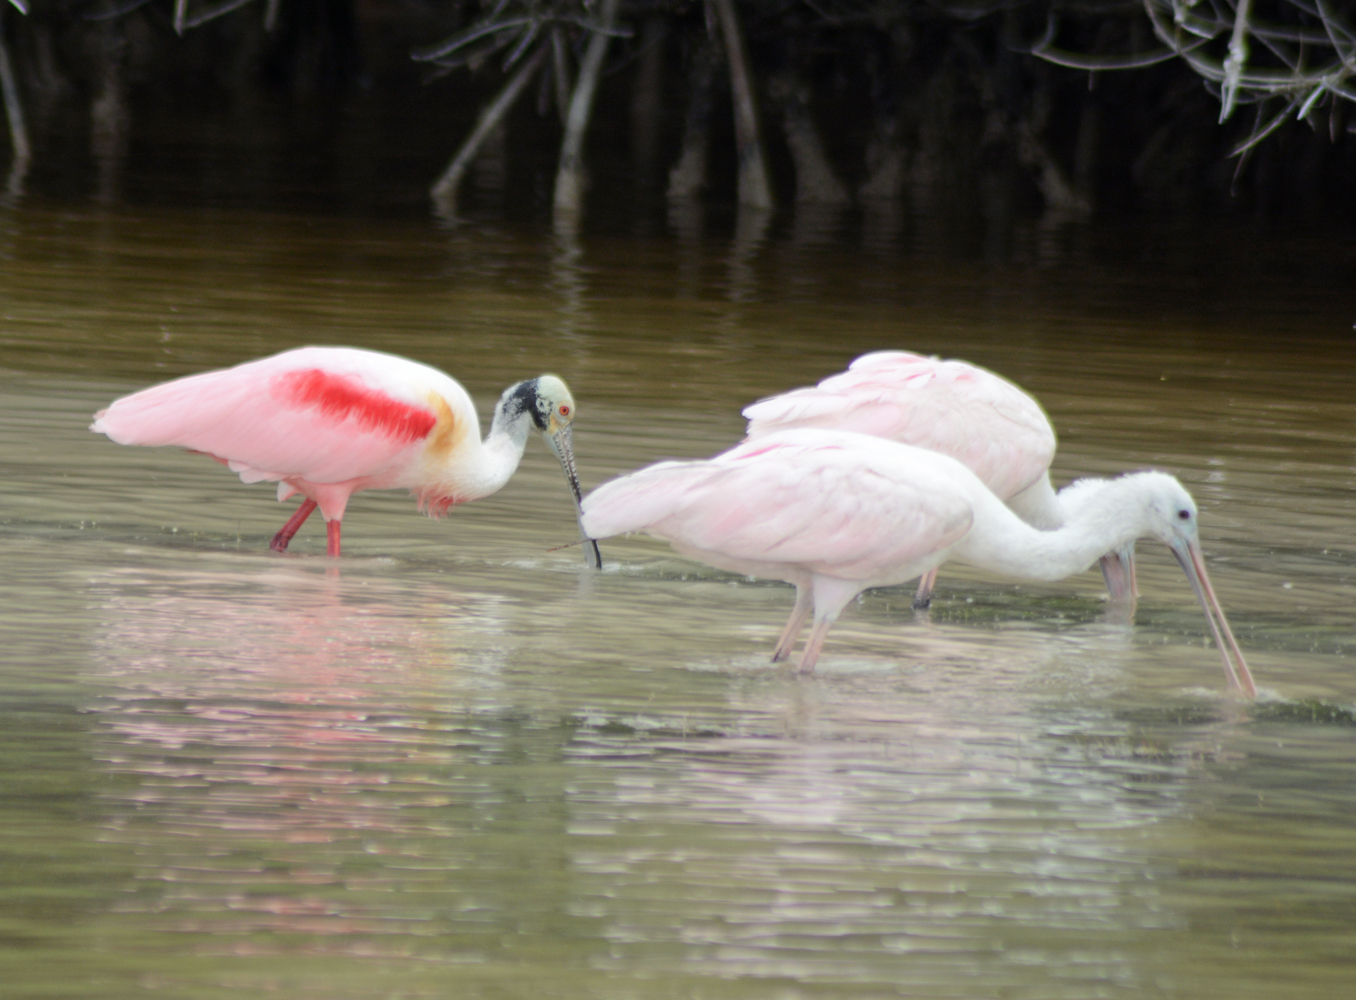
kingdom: Animalia
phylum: Chordata
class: Aves
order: Pelecaniformes
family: Threskiornithidae
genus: Platalea
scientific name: Platalea ajaja
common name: Roseate spoonbill
